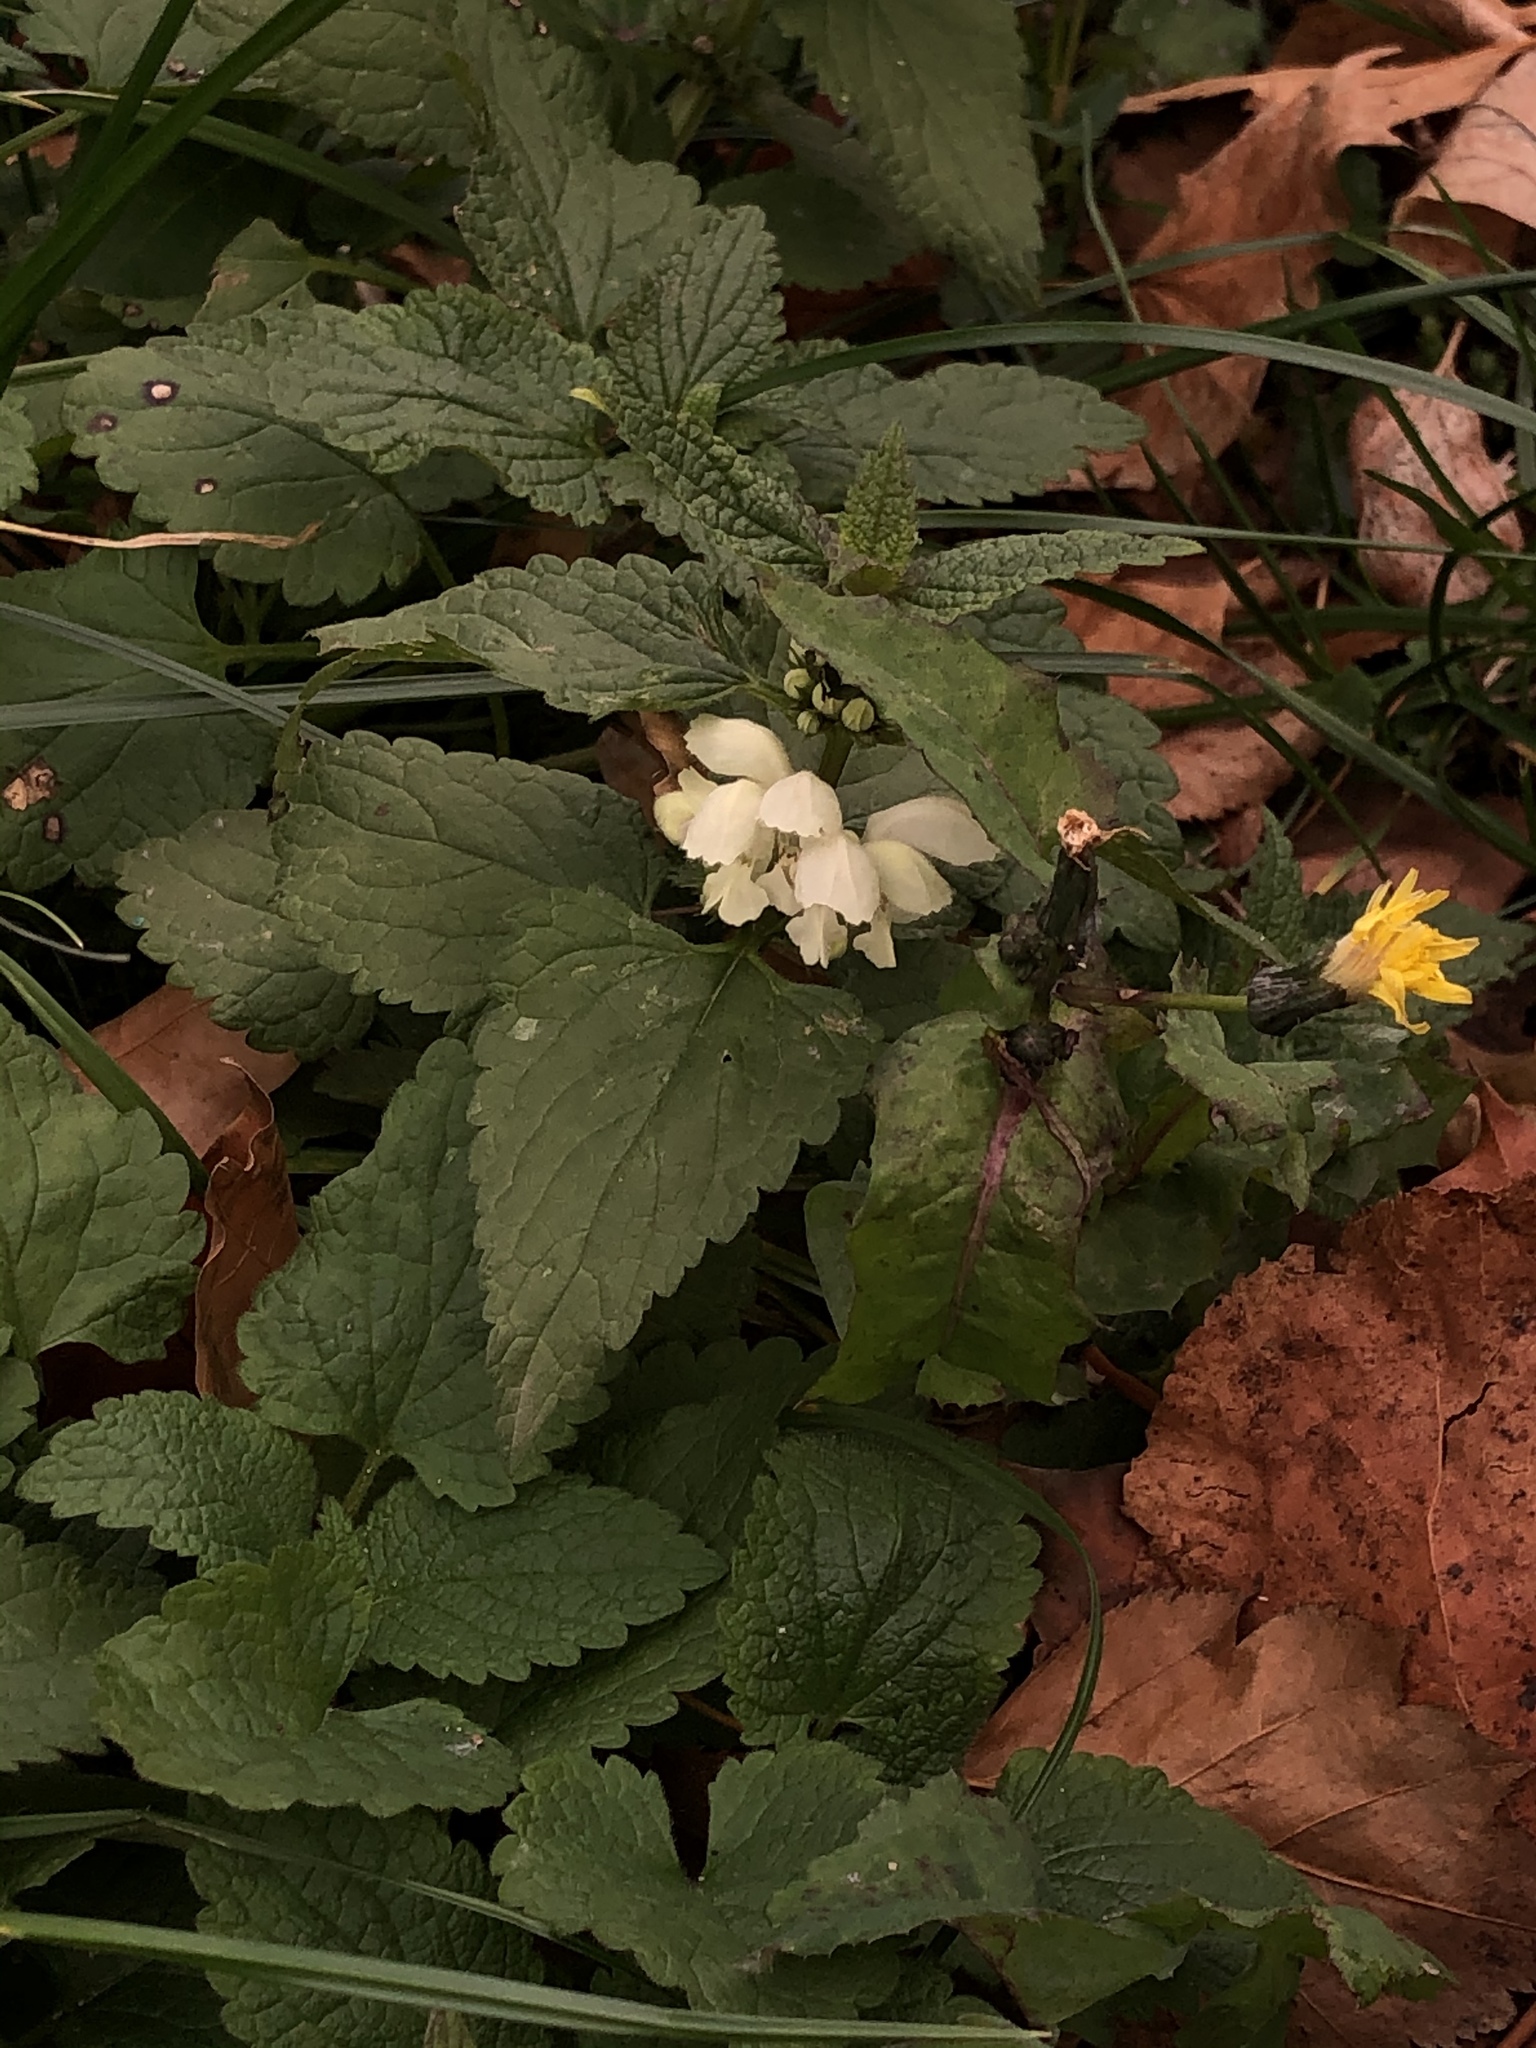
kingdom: Plantae
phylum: Tracheophyta
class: Magnoliopsida
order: Lamiales
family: Lamiaceae
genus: Lamium
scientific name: Lamium album
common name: White dead-nettle
